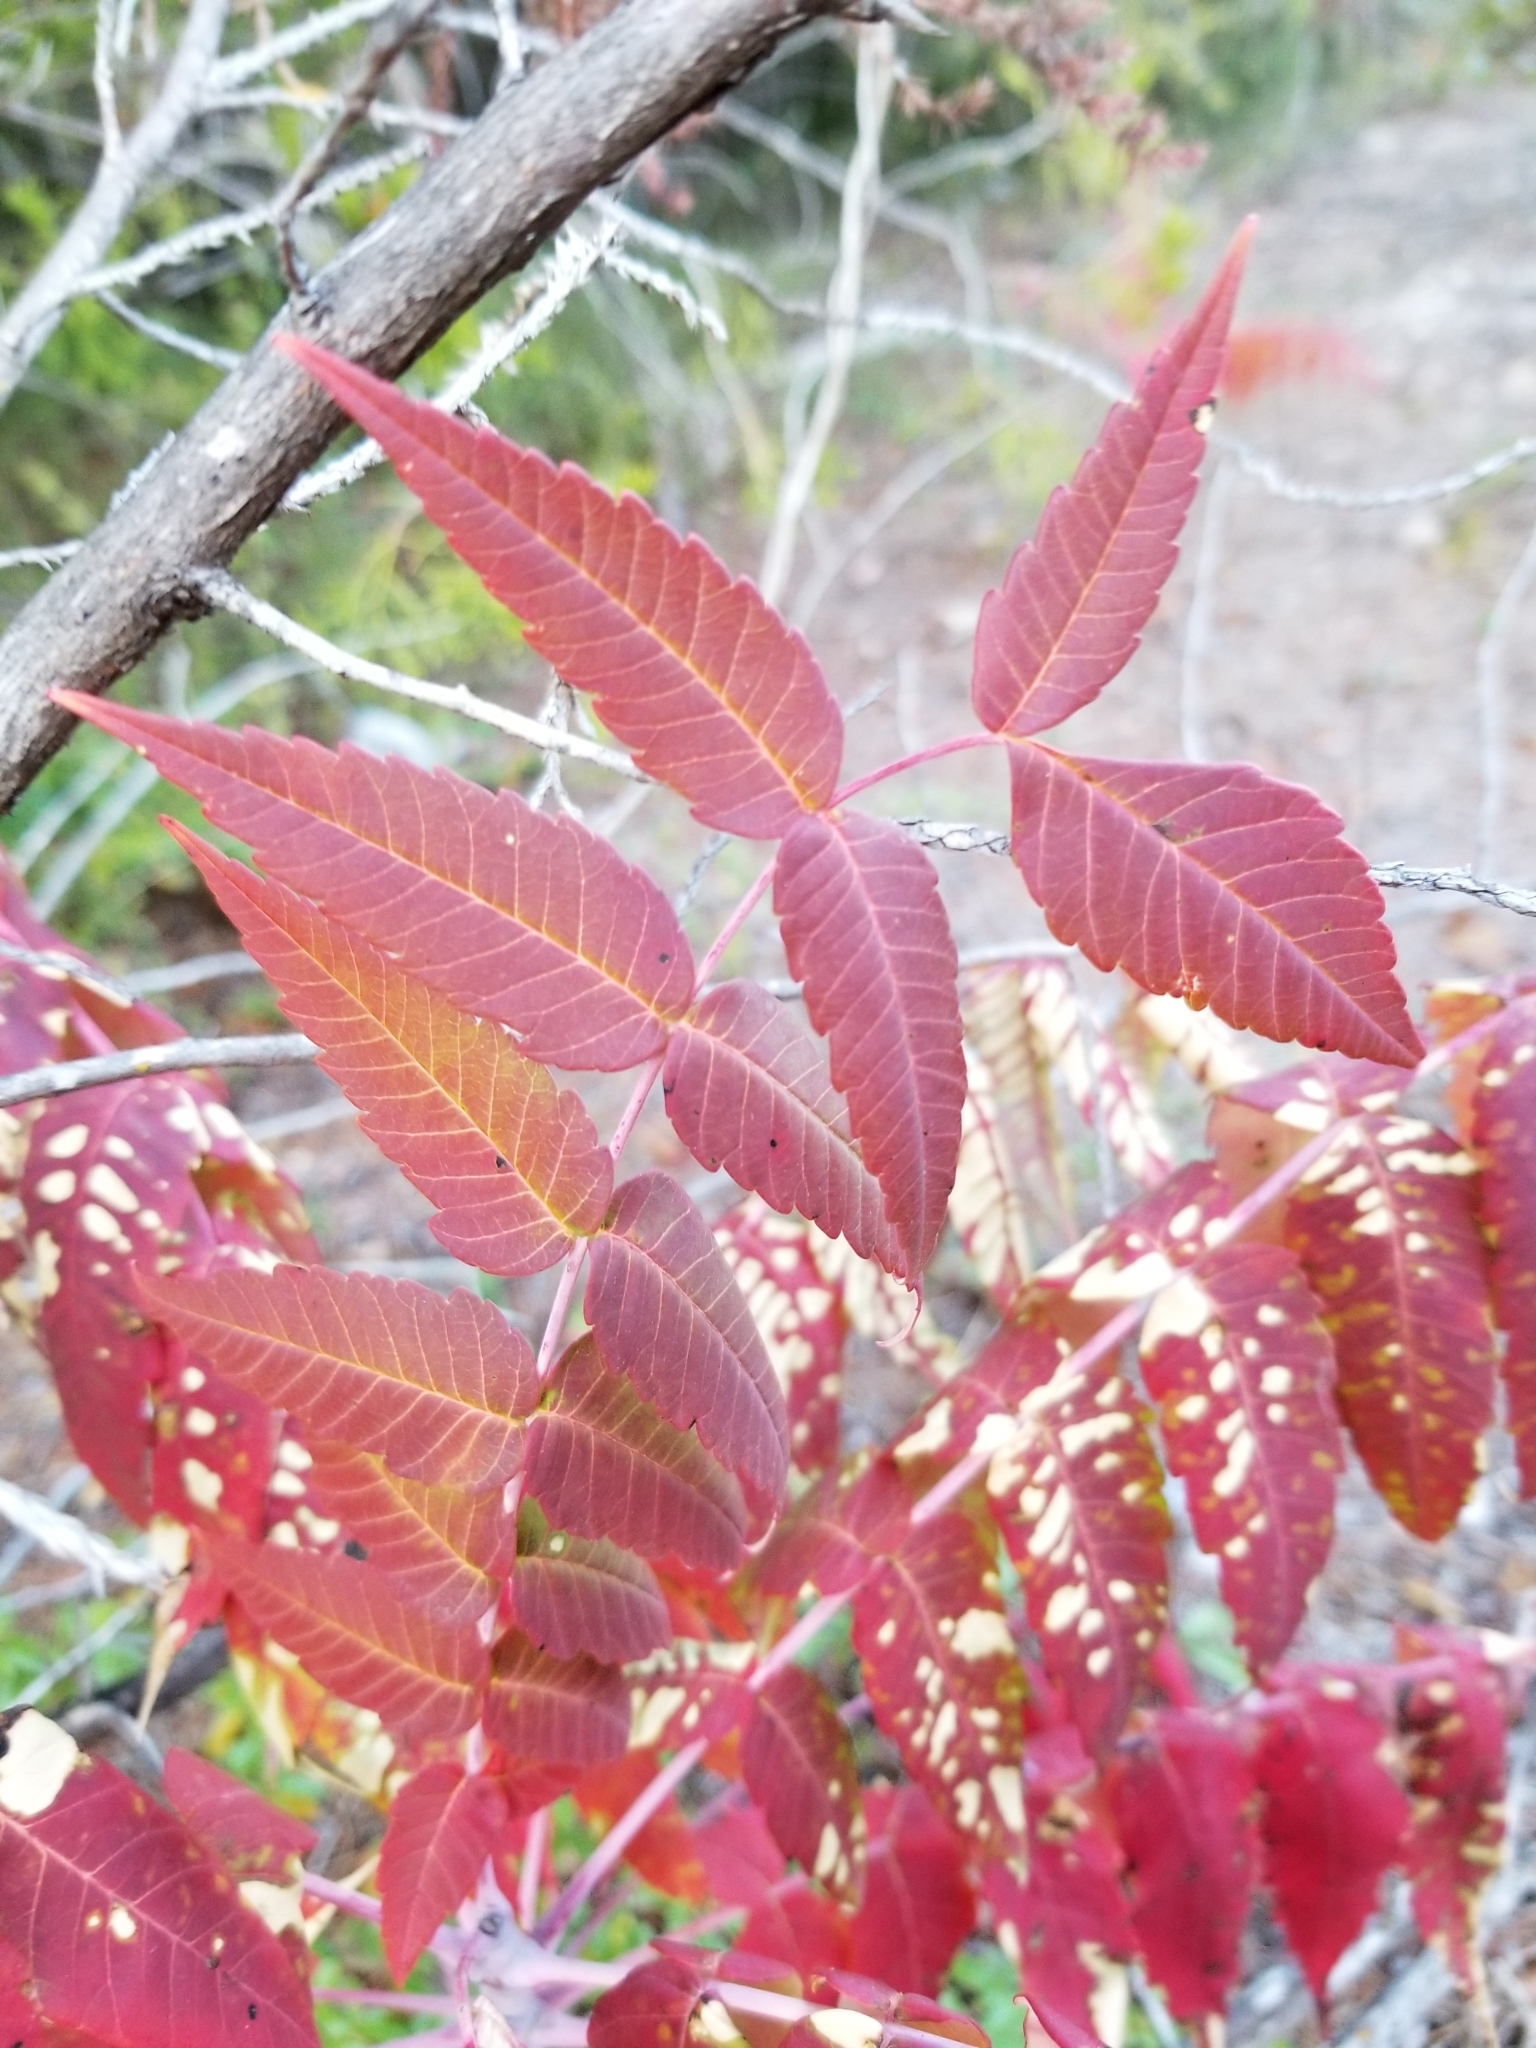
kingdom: Plantae
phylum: Tracheophyta
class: Magnoliopsida
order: Sapindales
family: Anacardiaceae
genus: Rhus
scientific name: Rhus glabra
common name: Scarlet sumac
